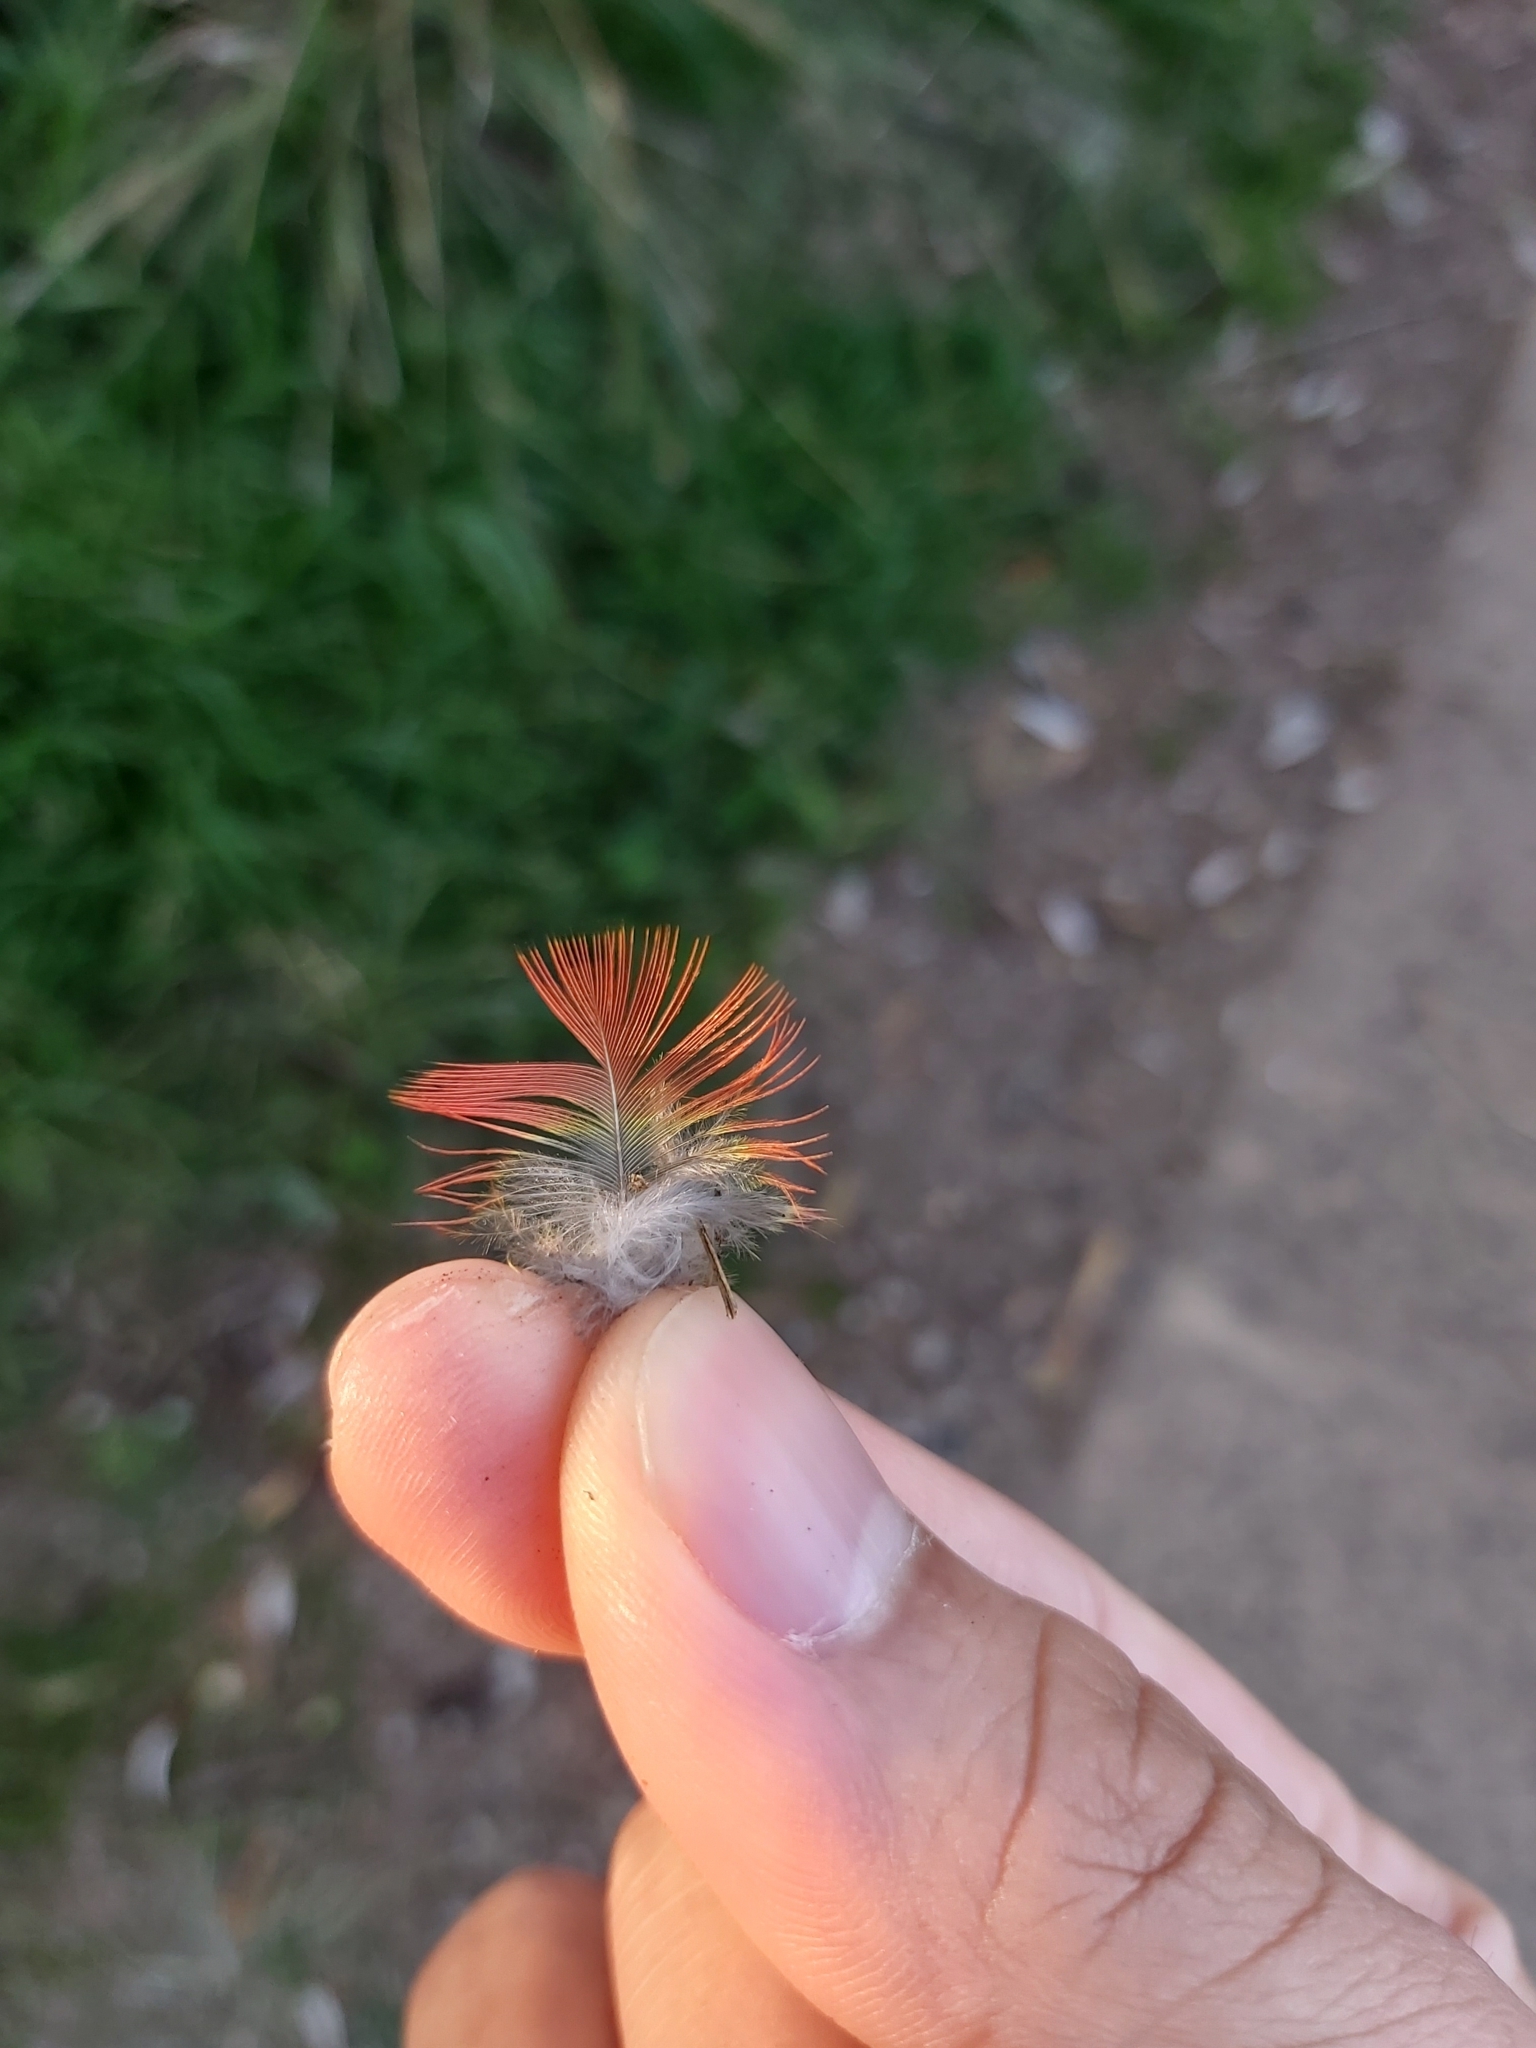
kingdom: Animalia
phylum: Chordata
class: Aves
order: Psittaciformes
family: Psittacidae
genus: Trichoglossus
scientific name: Trichoglossus haematodus
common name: Coconut lorikeet
